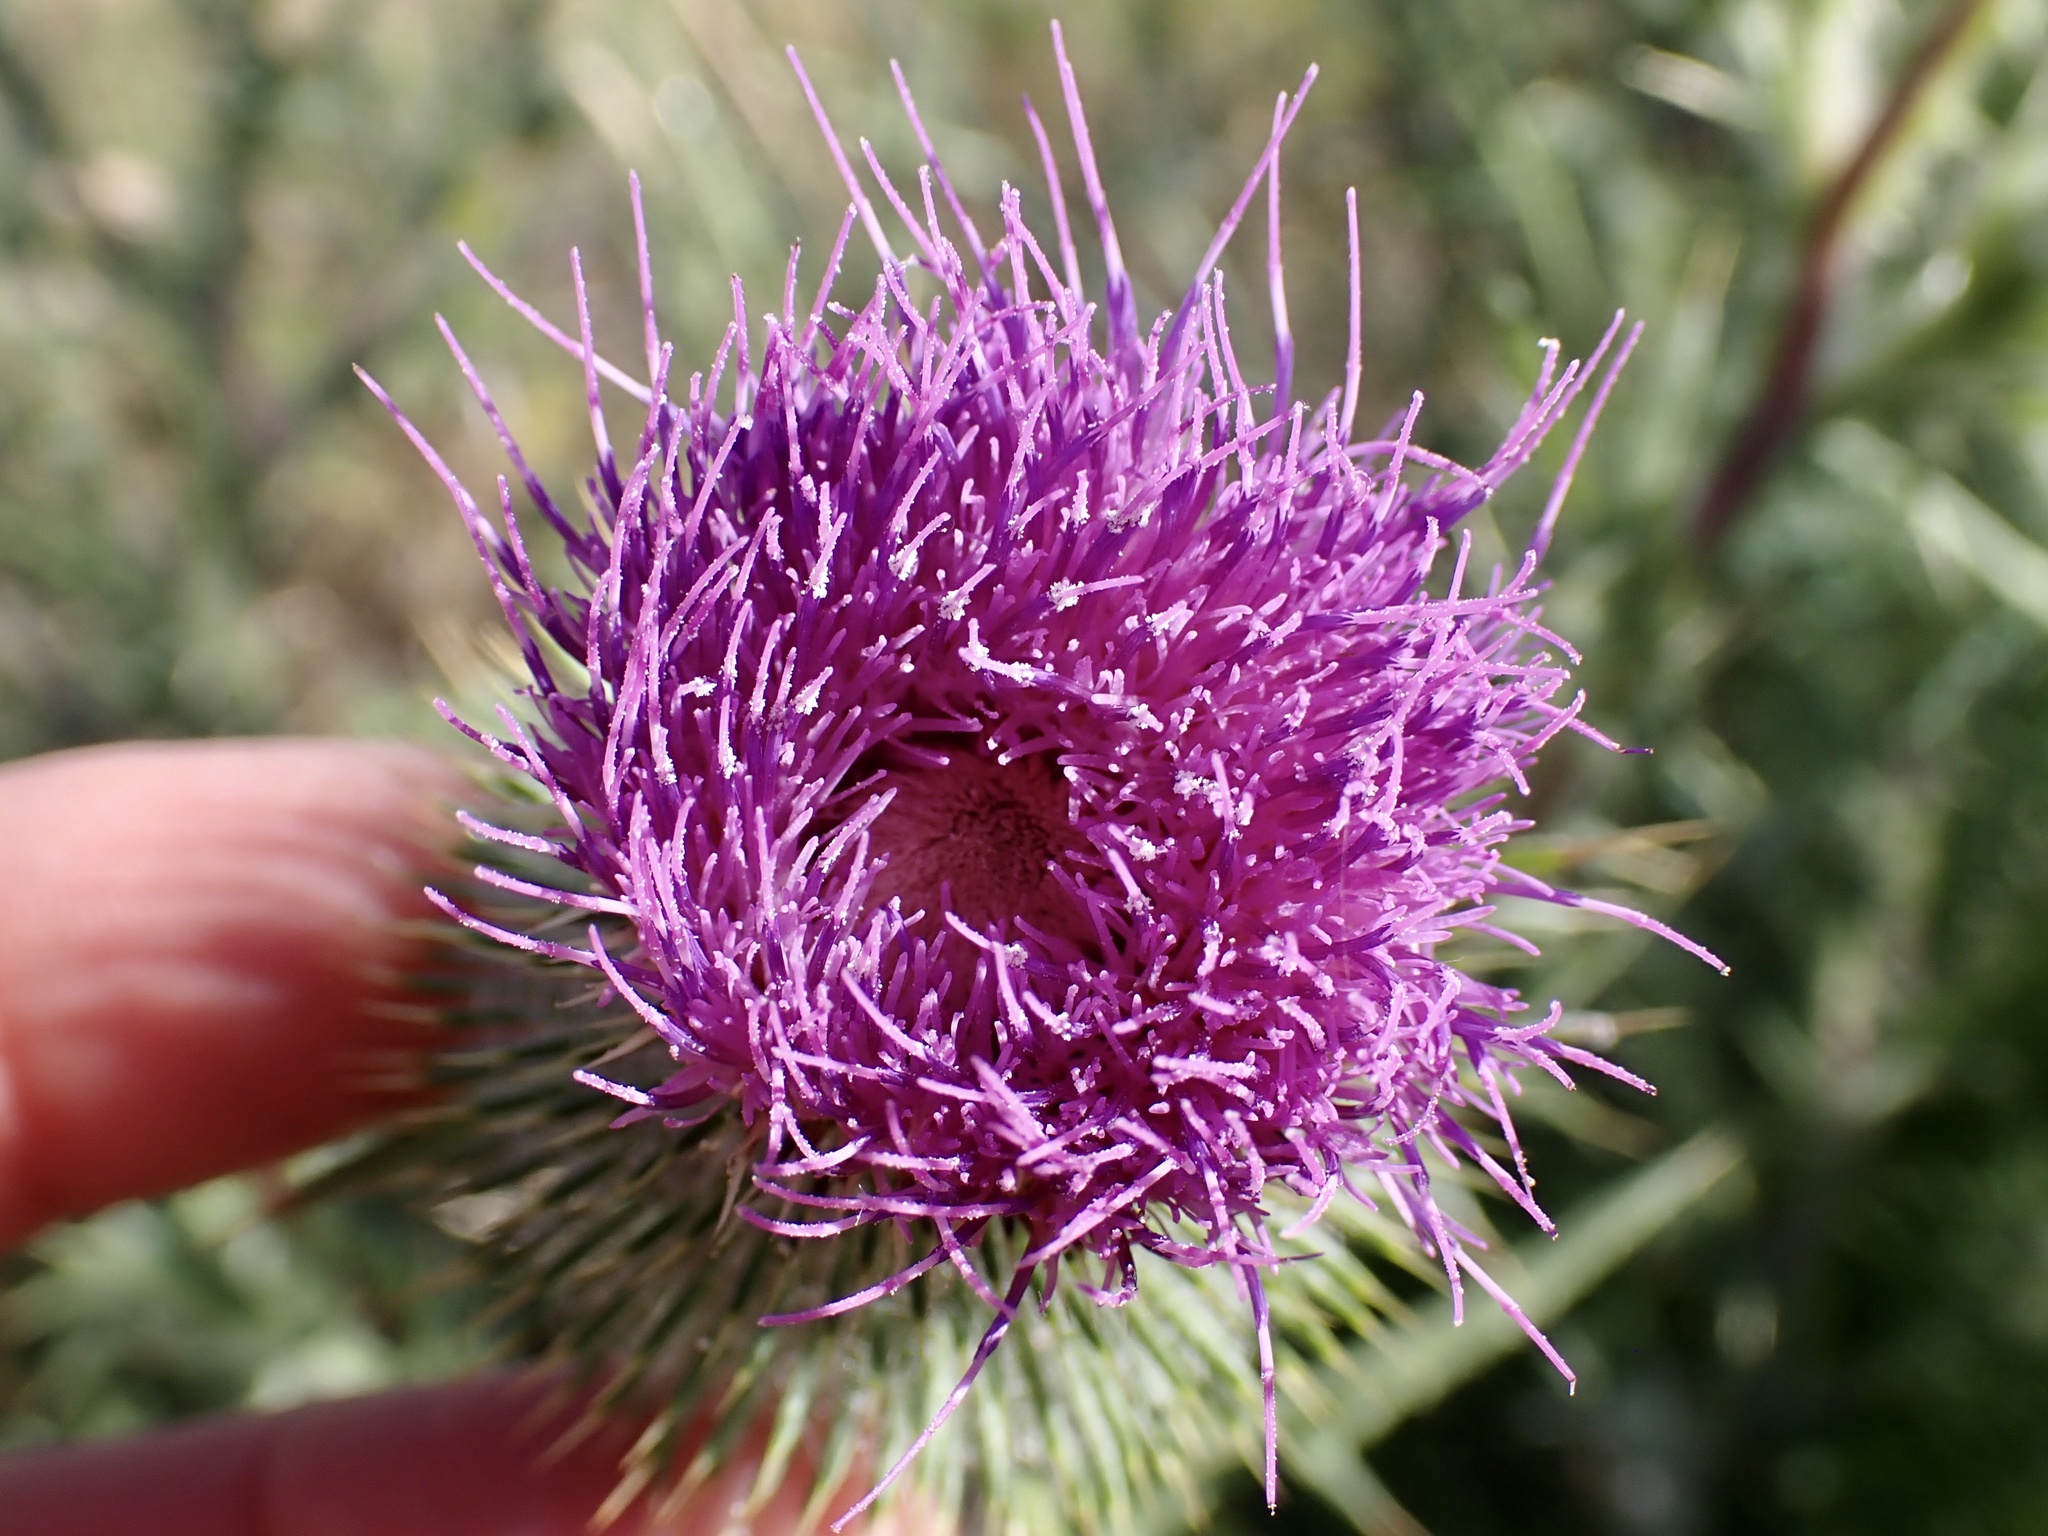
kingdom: Plantae
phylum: Tracheophyta
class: Magnoliopsida
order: Asterales
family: Asteraceae
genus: Cirsium
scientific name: Cirsium vulgare
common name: Bull thistle
